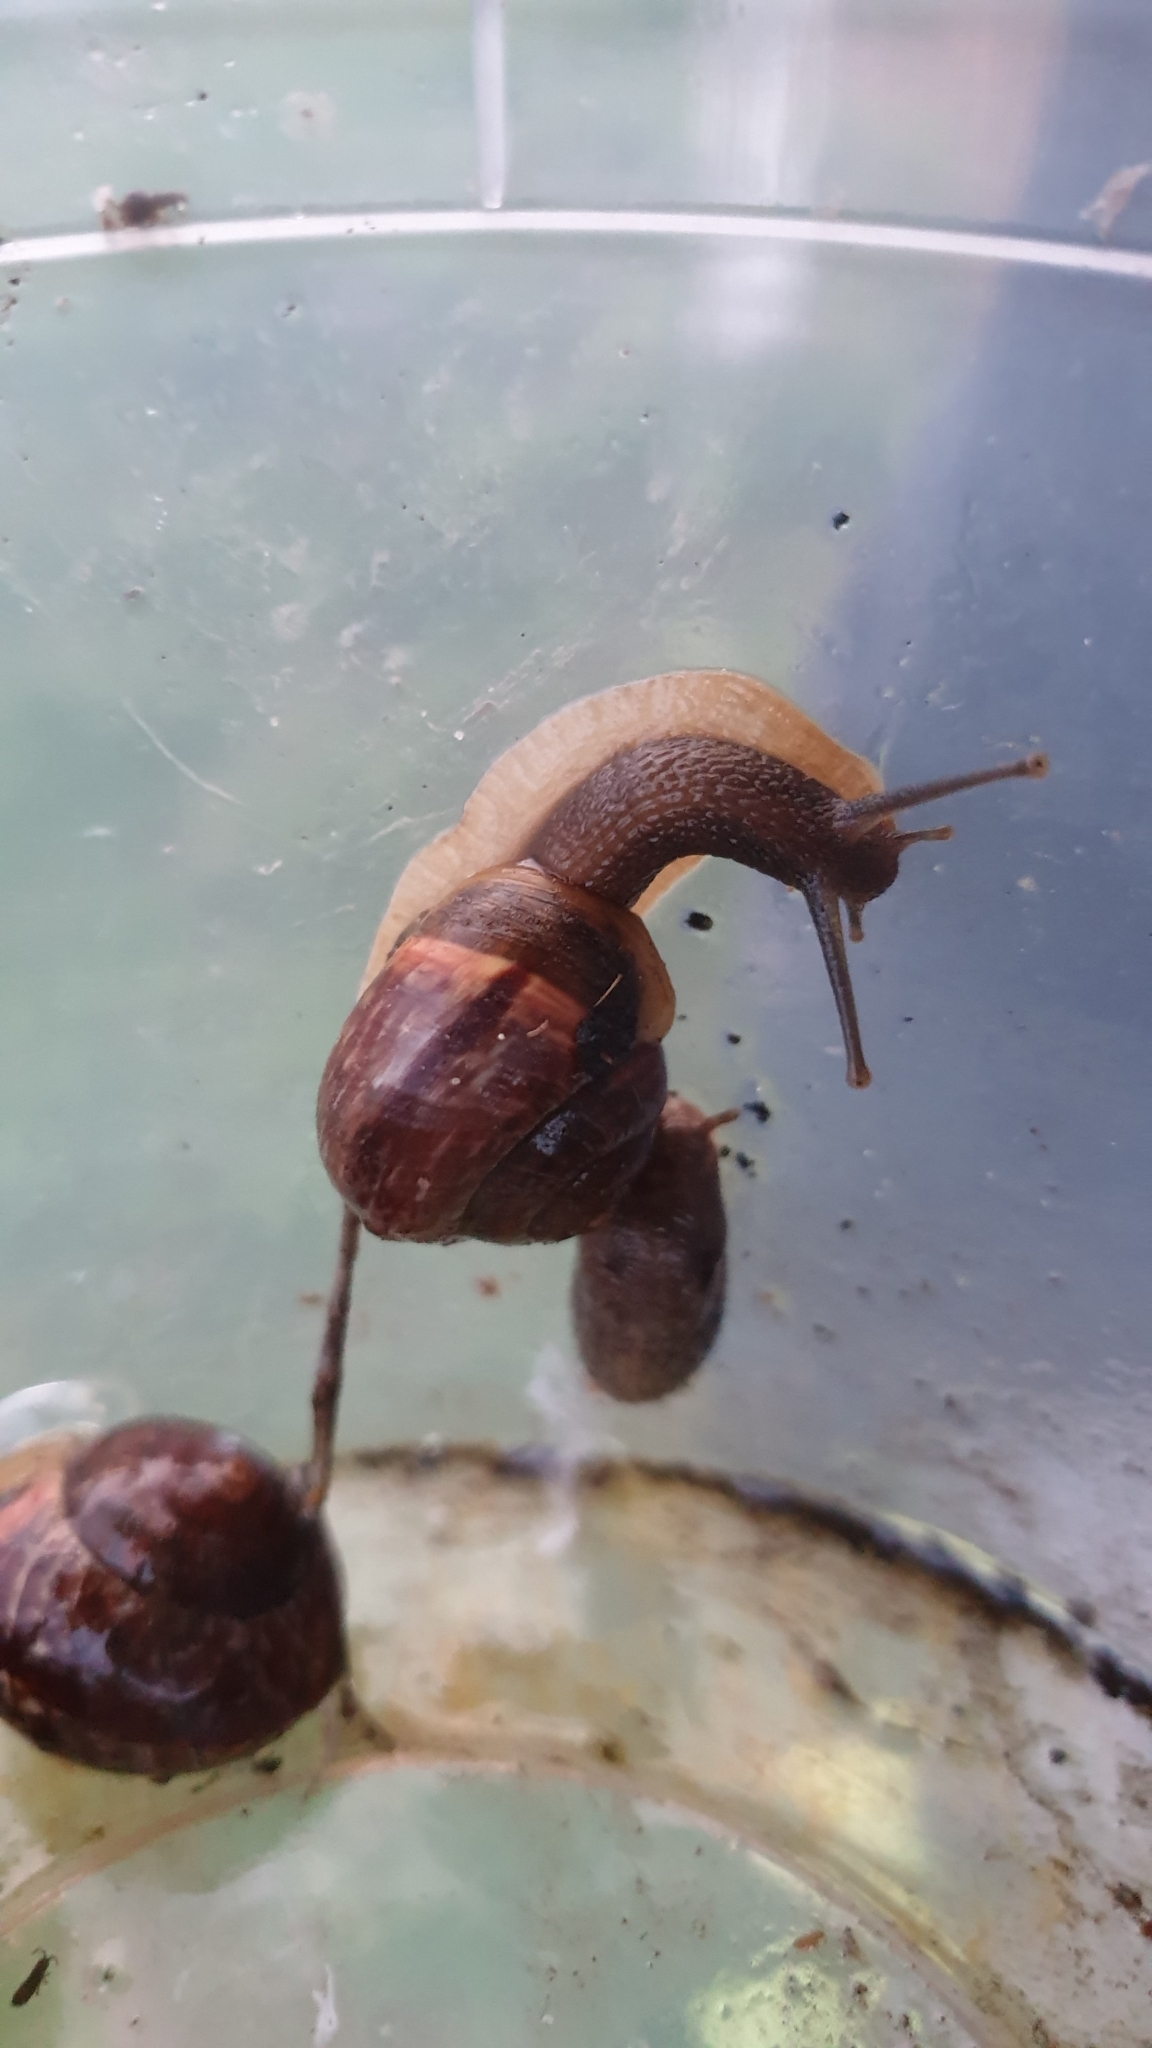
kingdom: Animalia
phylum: Mollusca
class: Gastropoda
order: Stylommatophora
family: Helicidae
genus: Arianta
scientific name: Arianta arbustorum
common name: Copse snail
